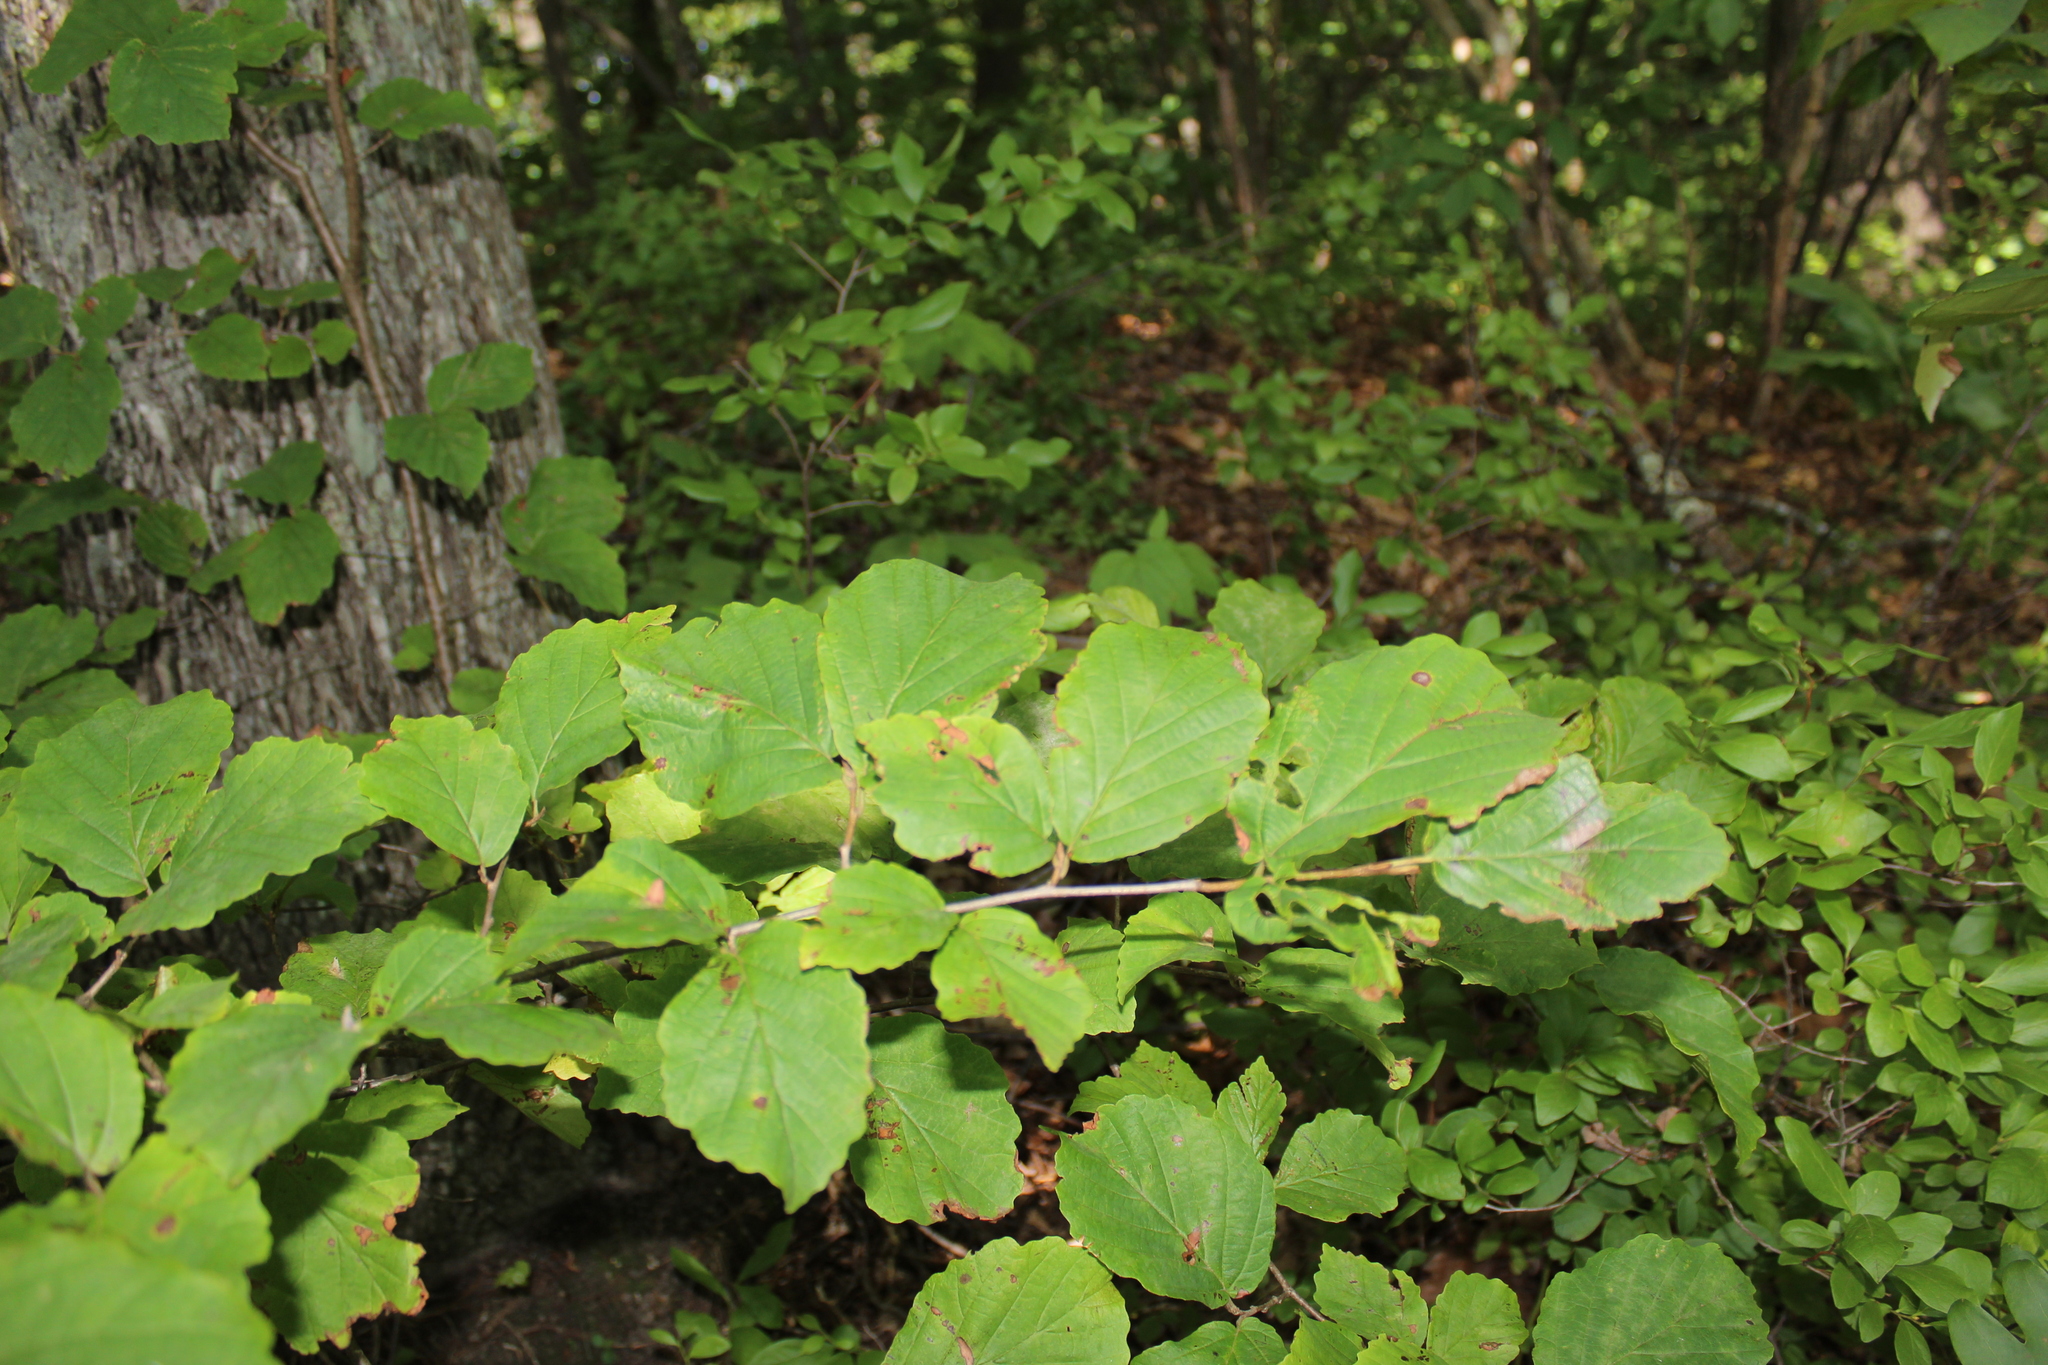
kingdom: Plantae
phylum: Tracheophyta
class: Magnoliopsida
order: Saxifragales
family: Hamamelidaceae
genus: Hamamelis
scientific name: Hamamelis virginiana
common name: Witch-hazel
